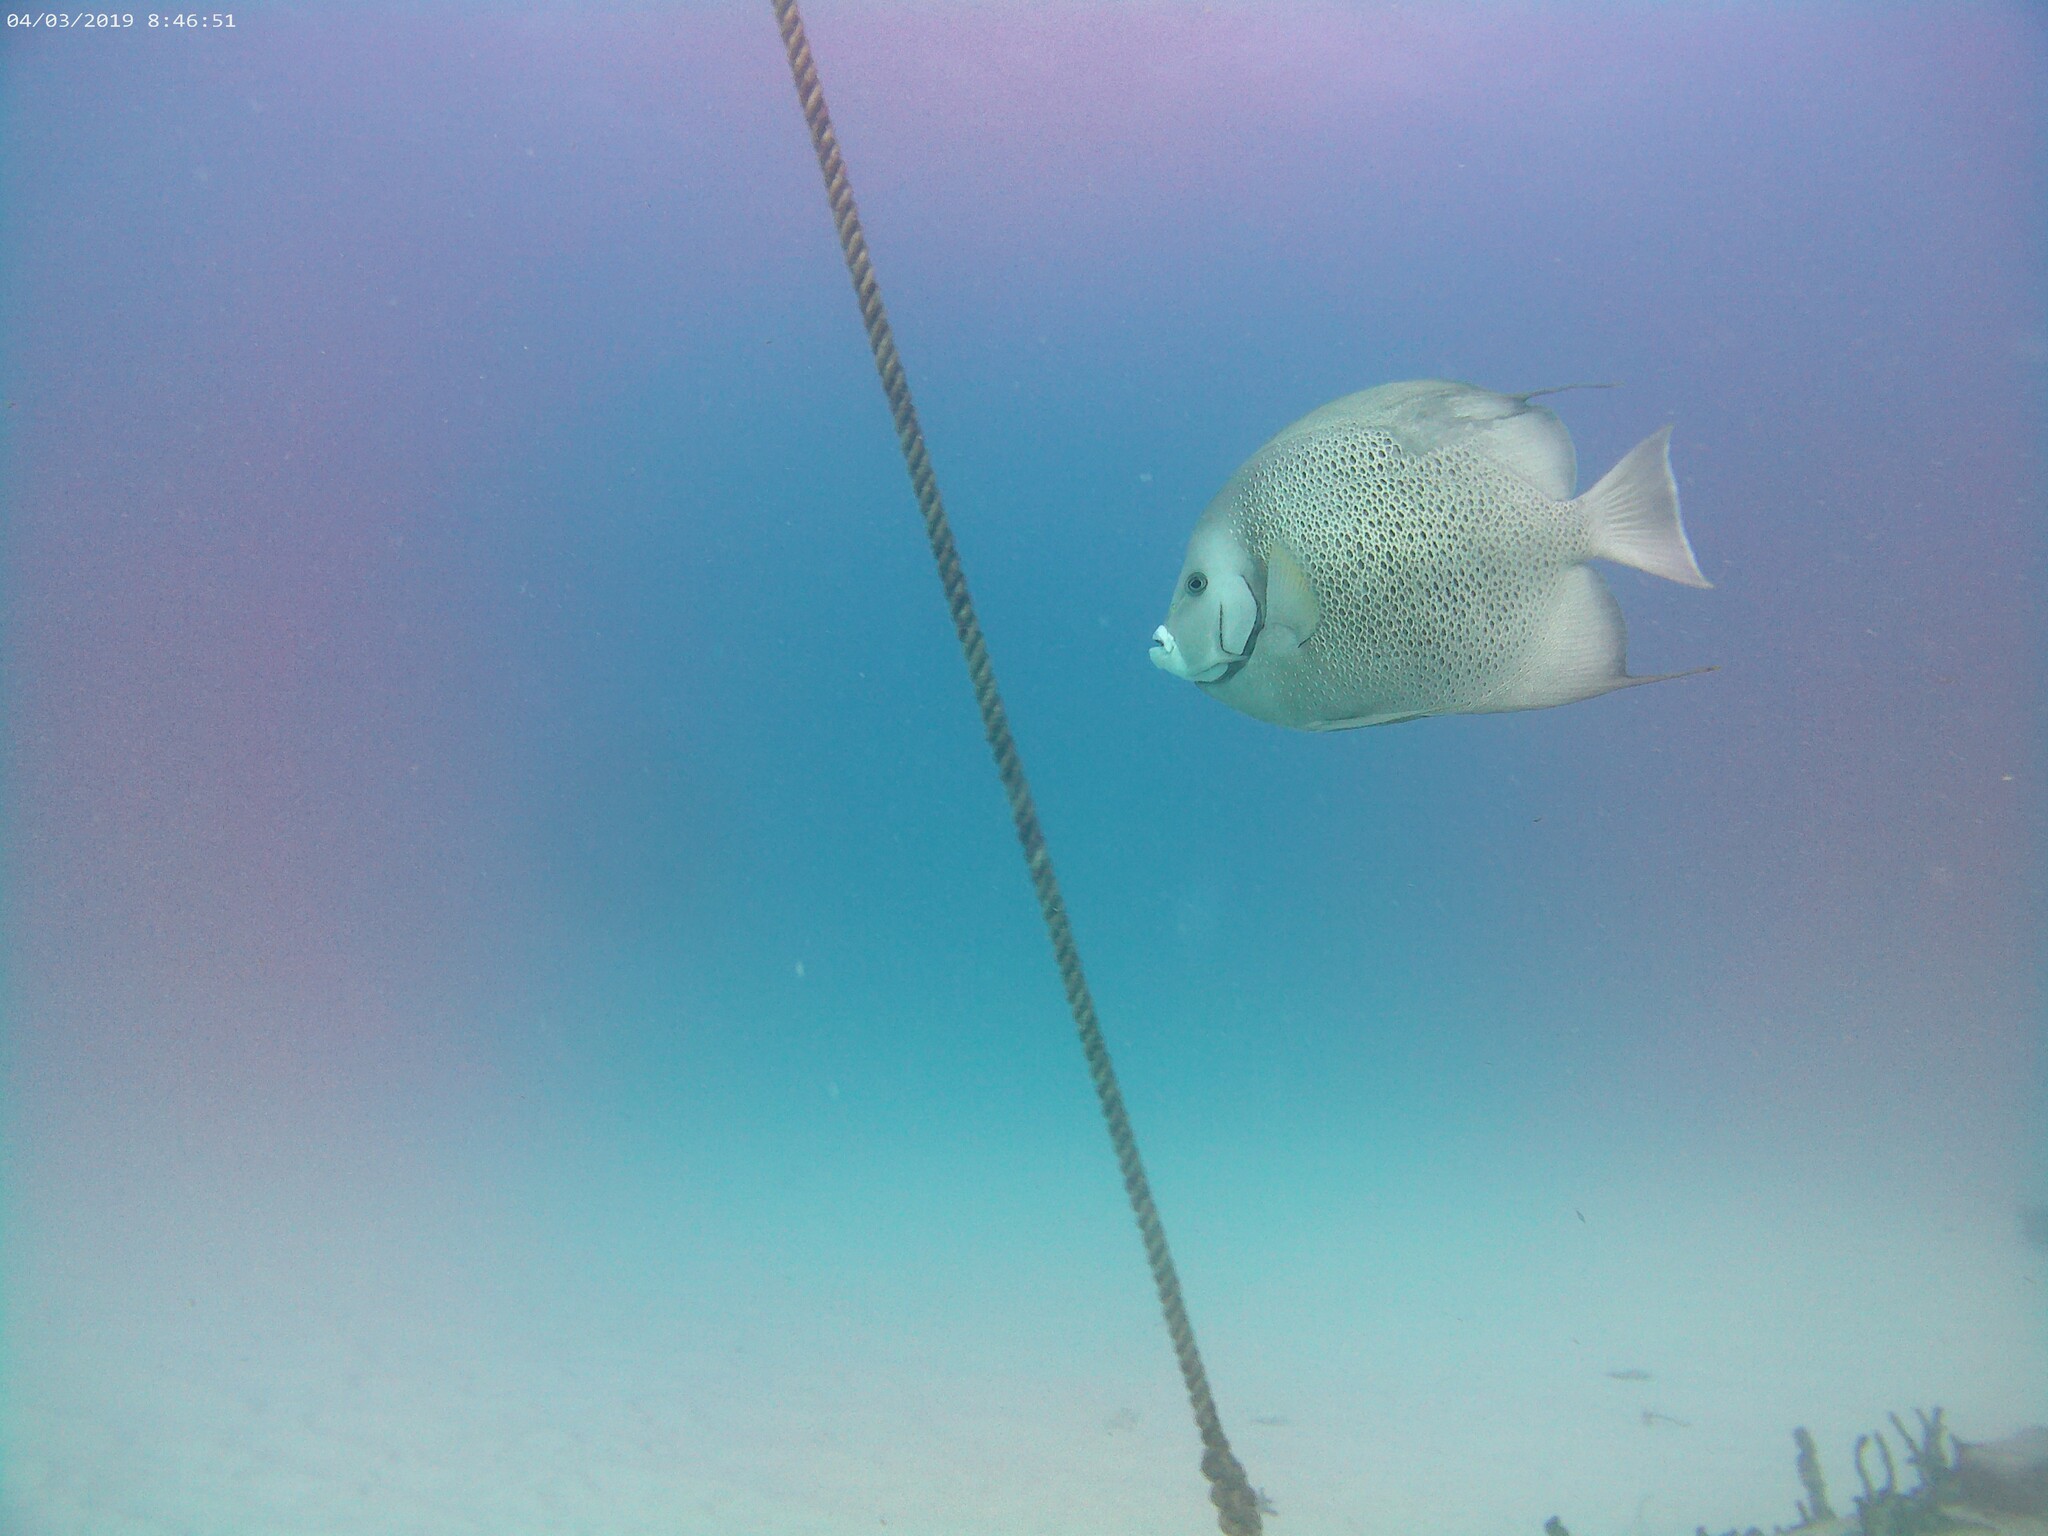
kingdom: Animalia
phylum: Chordata
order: Perciformes
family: Pomacanthidae
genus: Pomacanthus
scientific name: Pomacanthus arcuatus
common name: Gray angelfish
